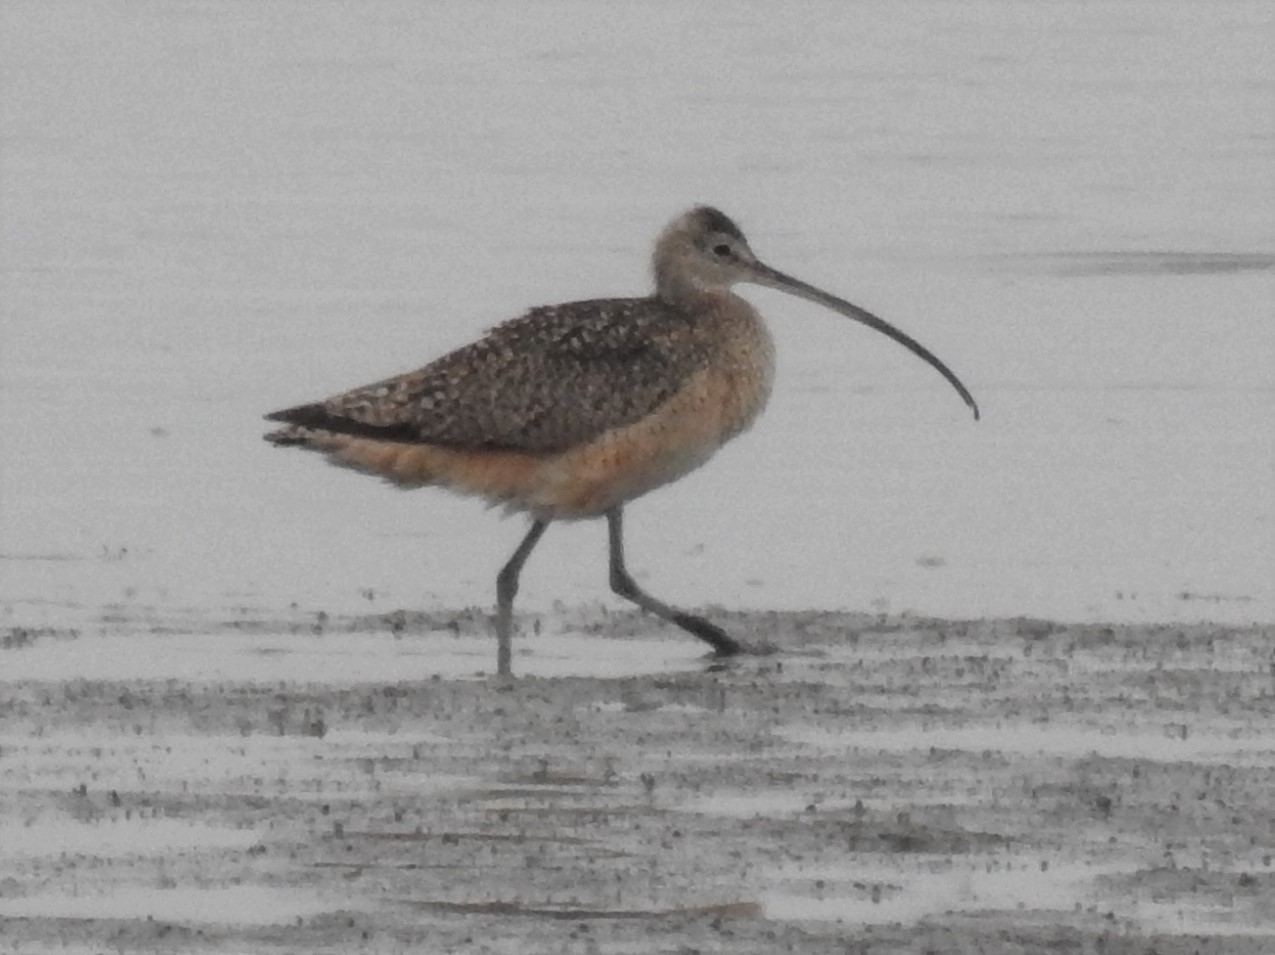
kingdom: Animalia
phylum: Chordata
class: Aves
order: Charadriiformes
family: Scolopacidae
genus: Numenius
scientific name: Numenius americanus
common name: Long-billed curlew
